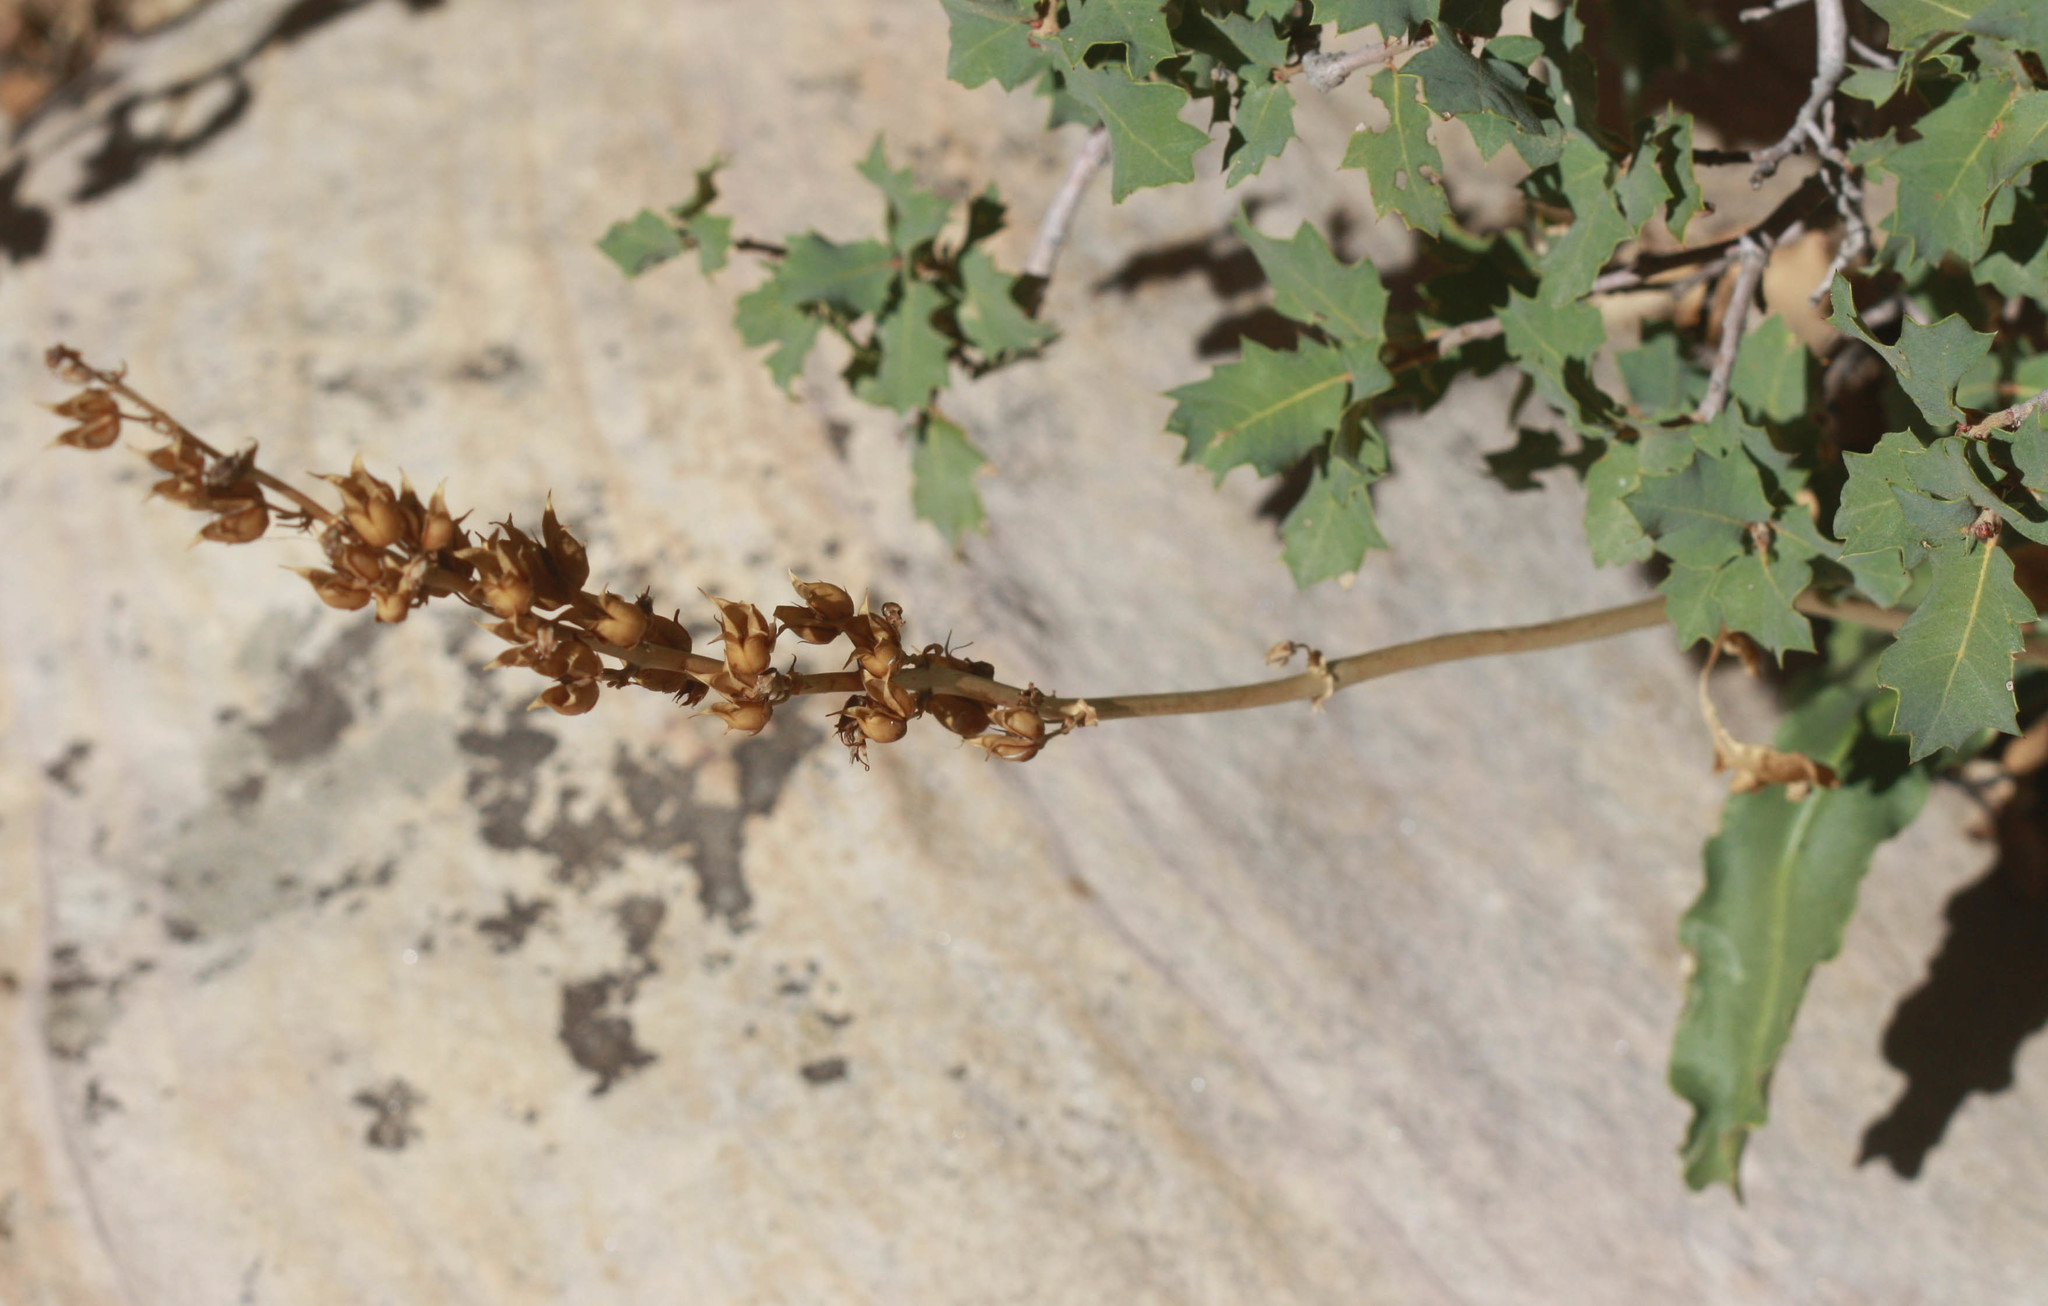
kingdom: Plantae
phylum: Tracheophyta
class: Magnoliopsida
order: Fagales
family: Fagaceae
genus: Quercus
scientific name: Quercus turbinella
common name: Sonoran scrub oak
